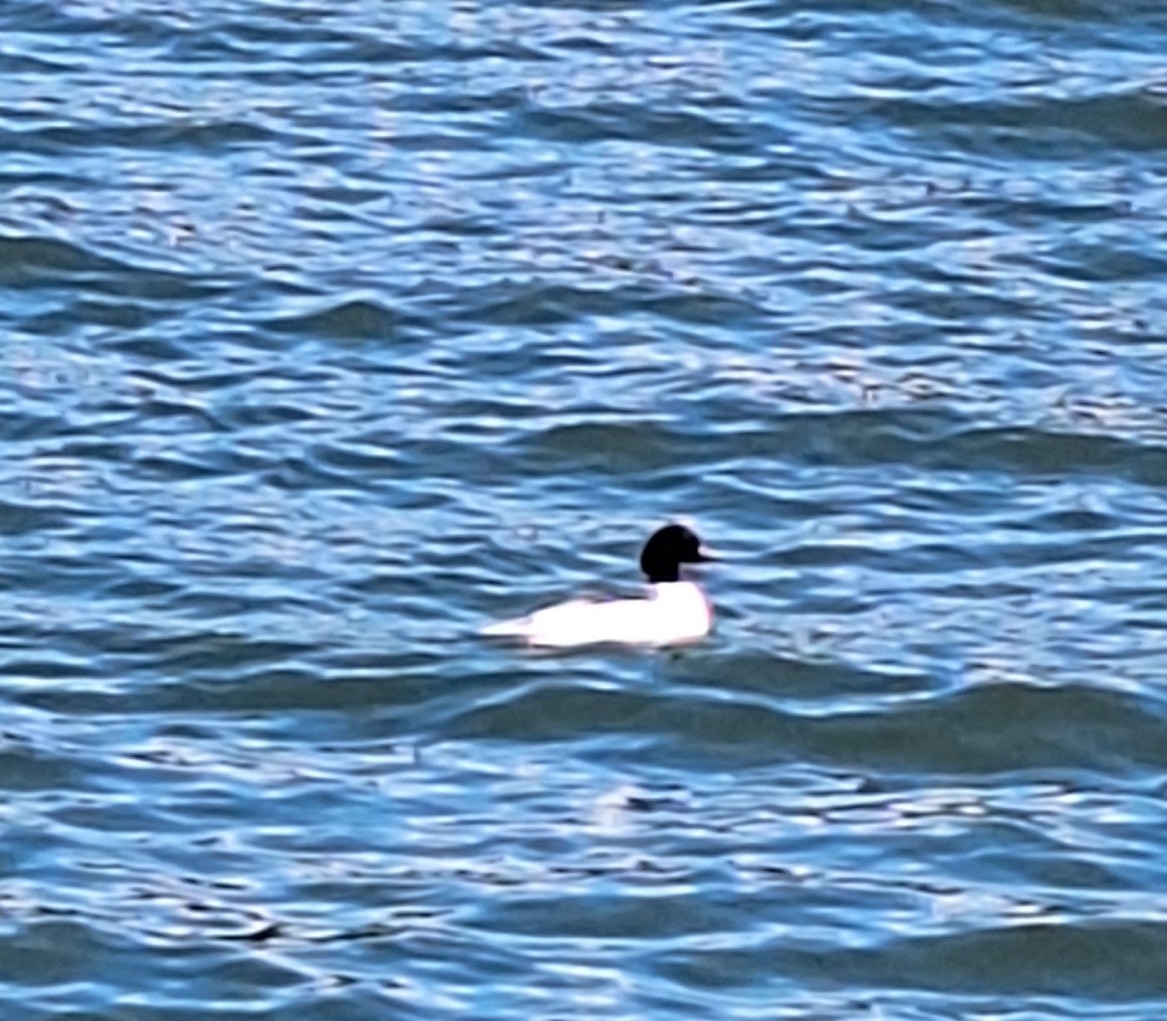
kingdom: Animalia
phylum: Chordata
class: Aves
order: Anseriformes
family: Anatidae
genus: Mergus
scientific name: Mergus merganser
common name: Common merganser
